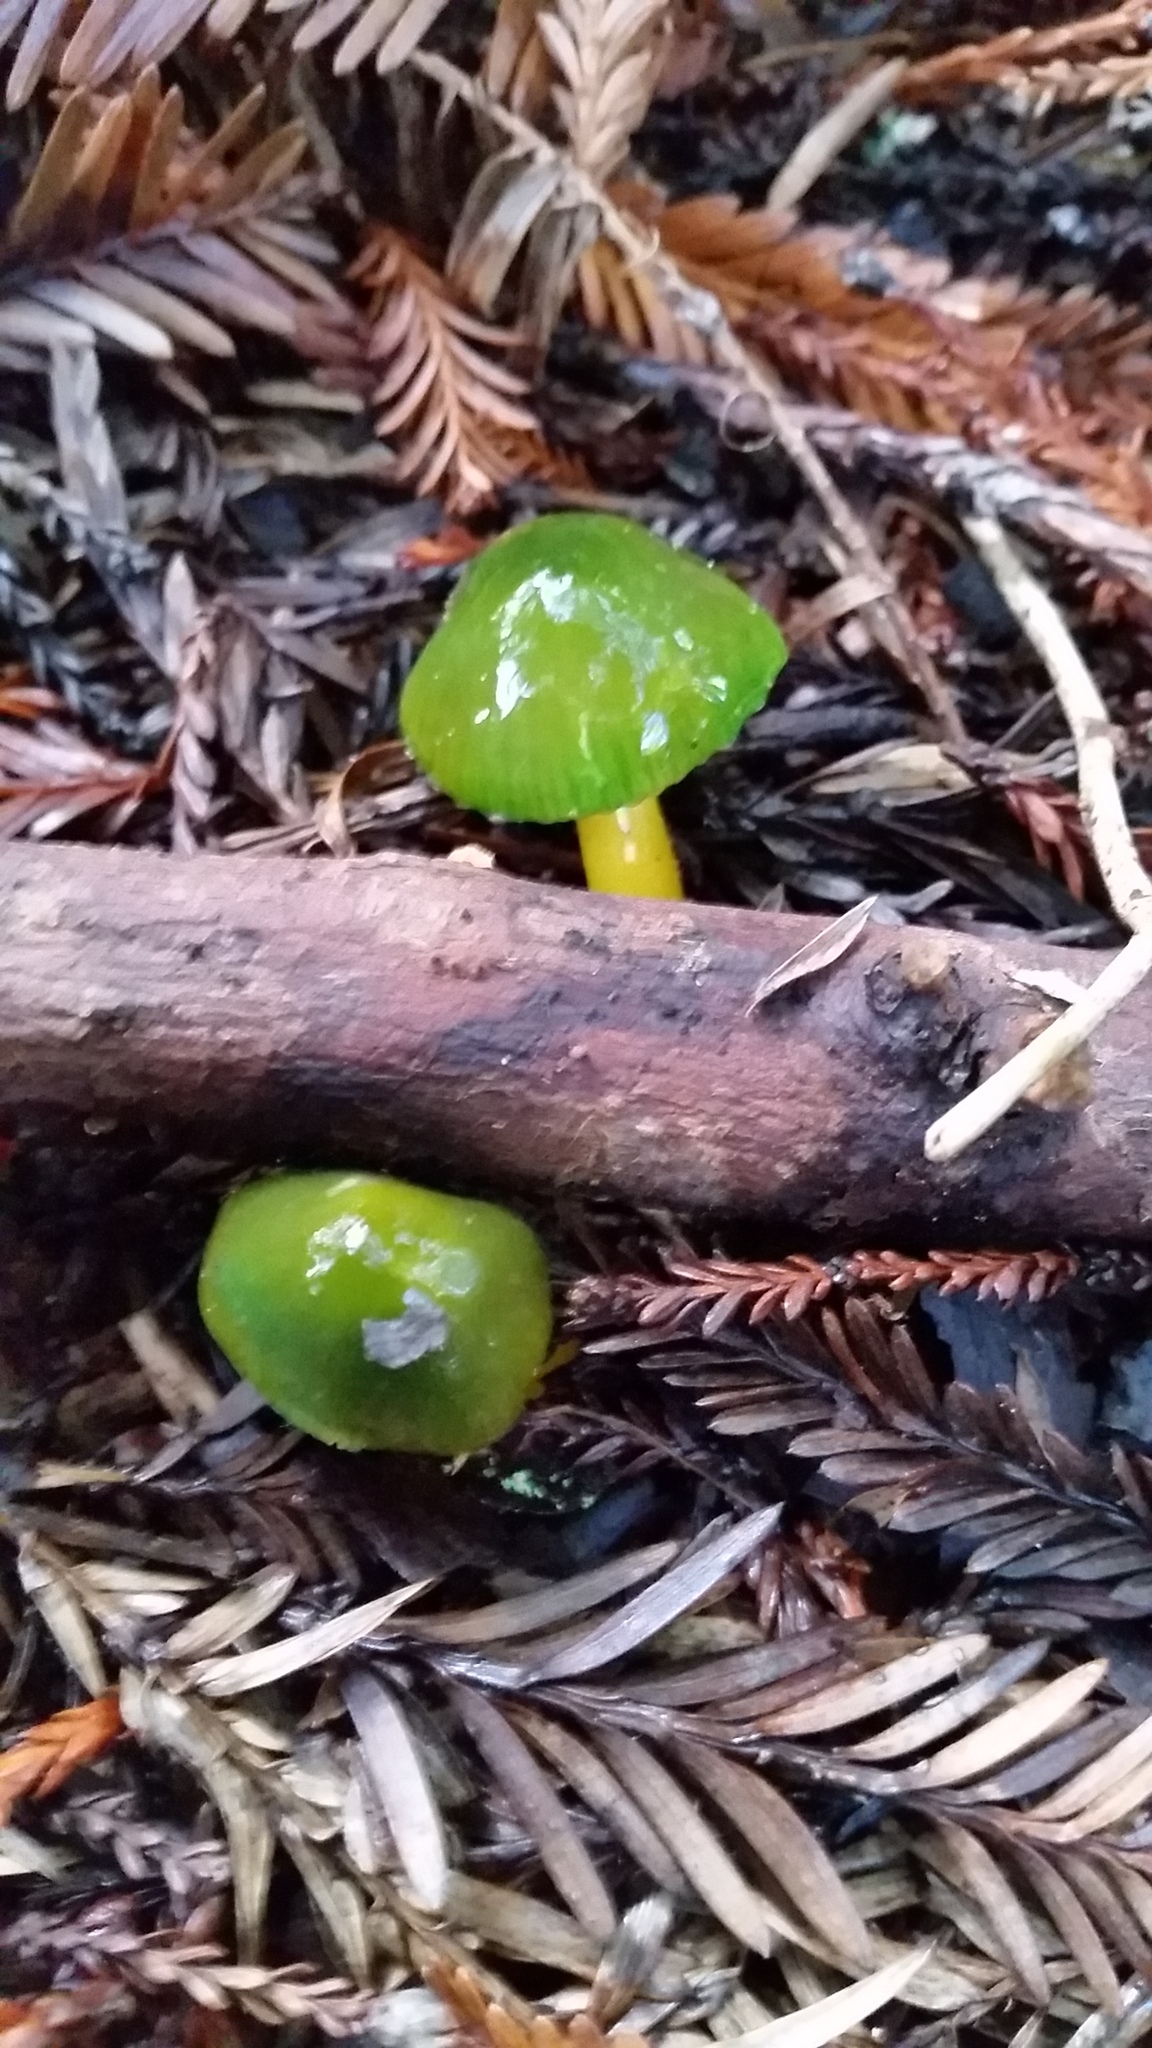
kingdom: Fungi
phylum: Basidiomycota
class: Agaricomycetes
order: Agaricales
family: Hygrophoraceae
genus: Gliophorus
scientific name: Gliophorus psittacinus
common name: Parrot wax-cap
